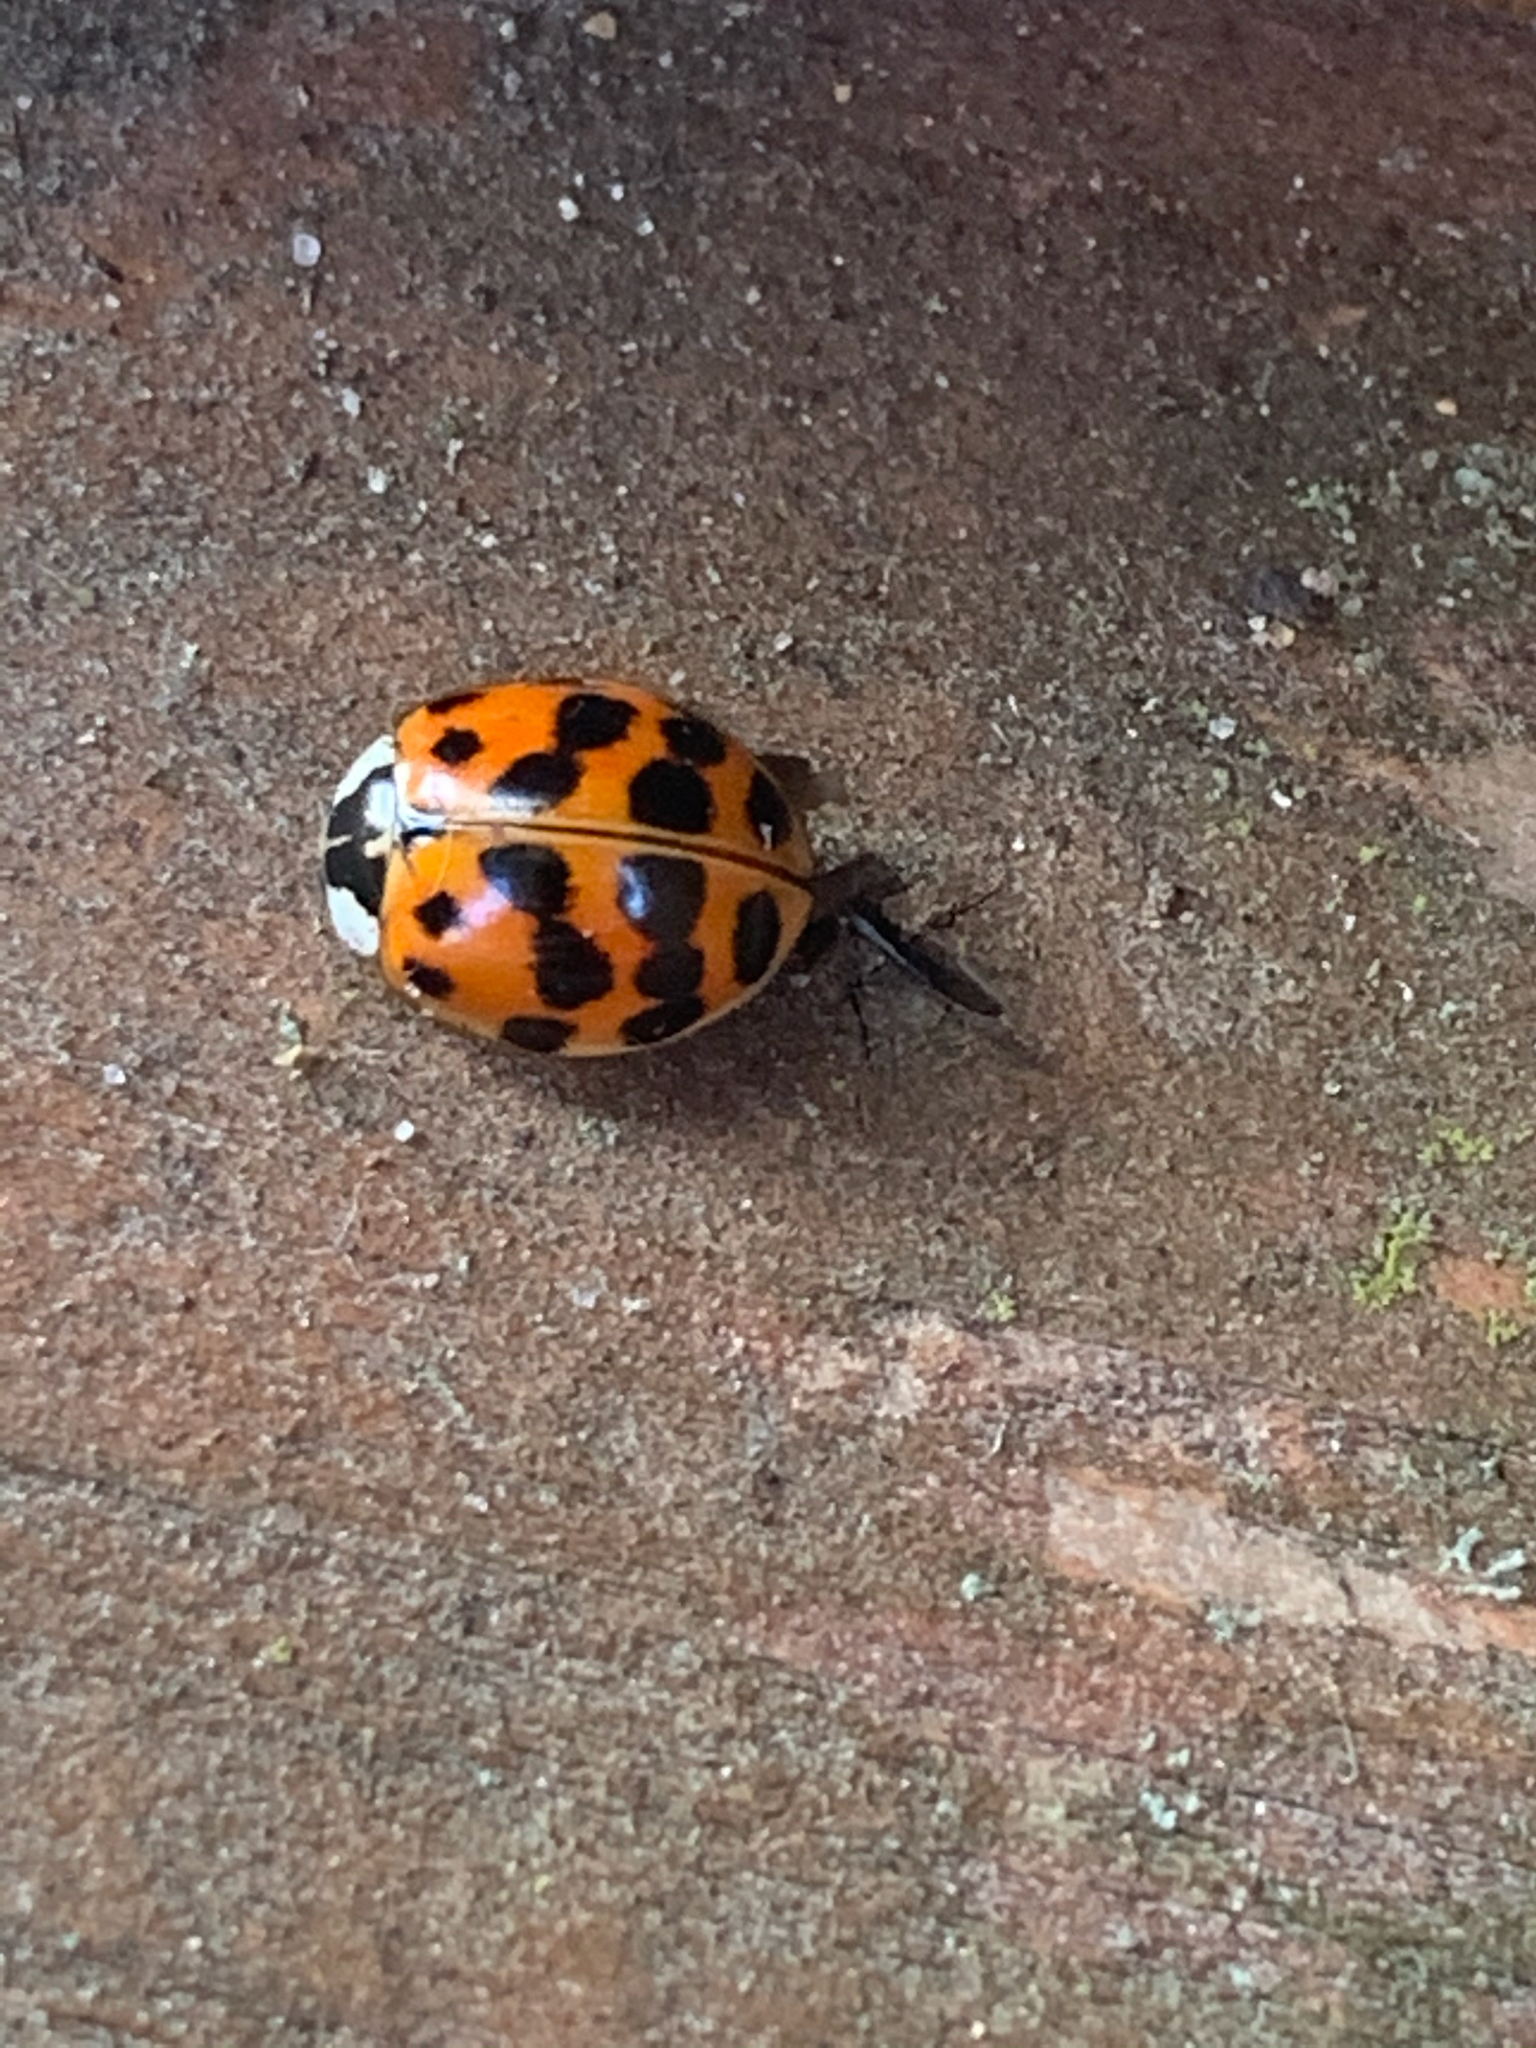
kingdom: Animalia
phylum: Arthropoda
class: Insecta
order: Coleoptera
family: Coccinellidae
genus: Harmonia
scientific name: Harmonia axyridis
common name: Harlequin ladybird
